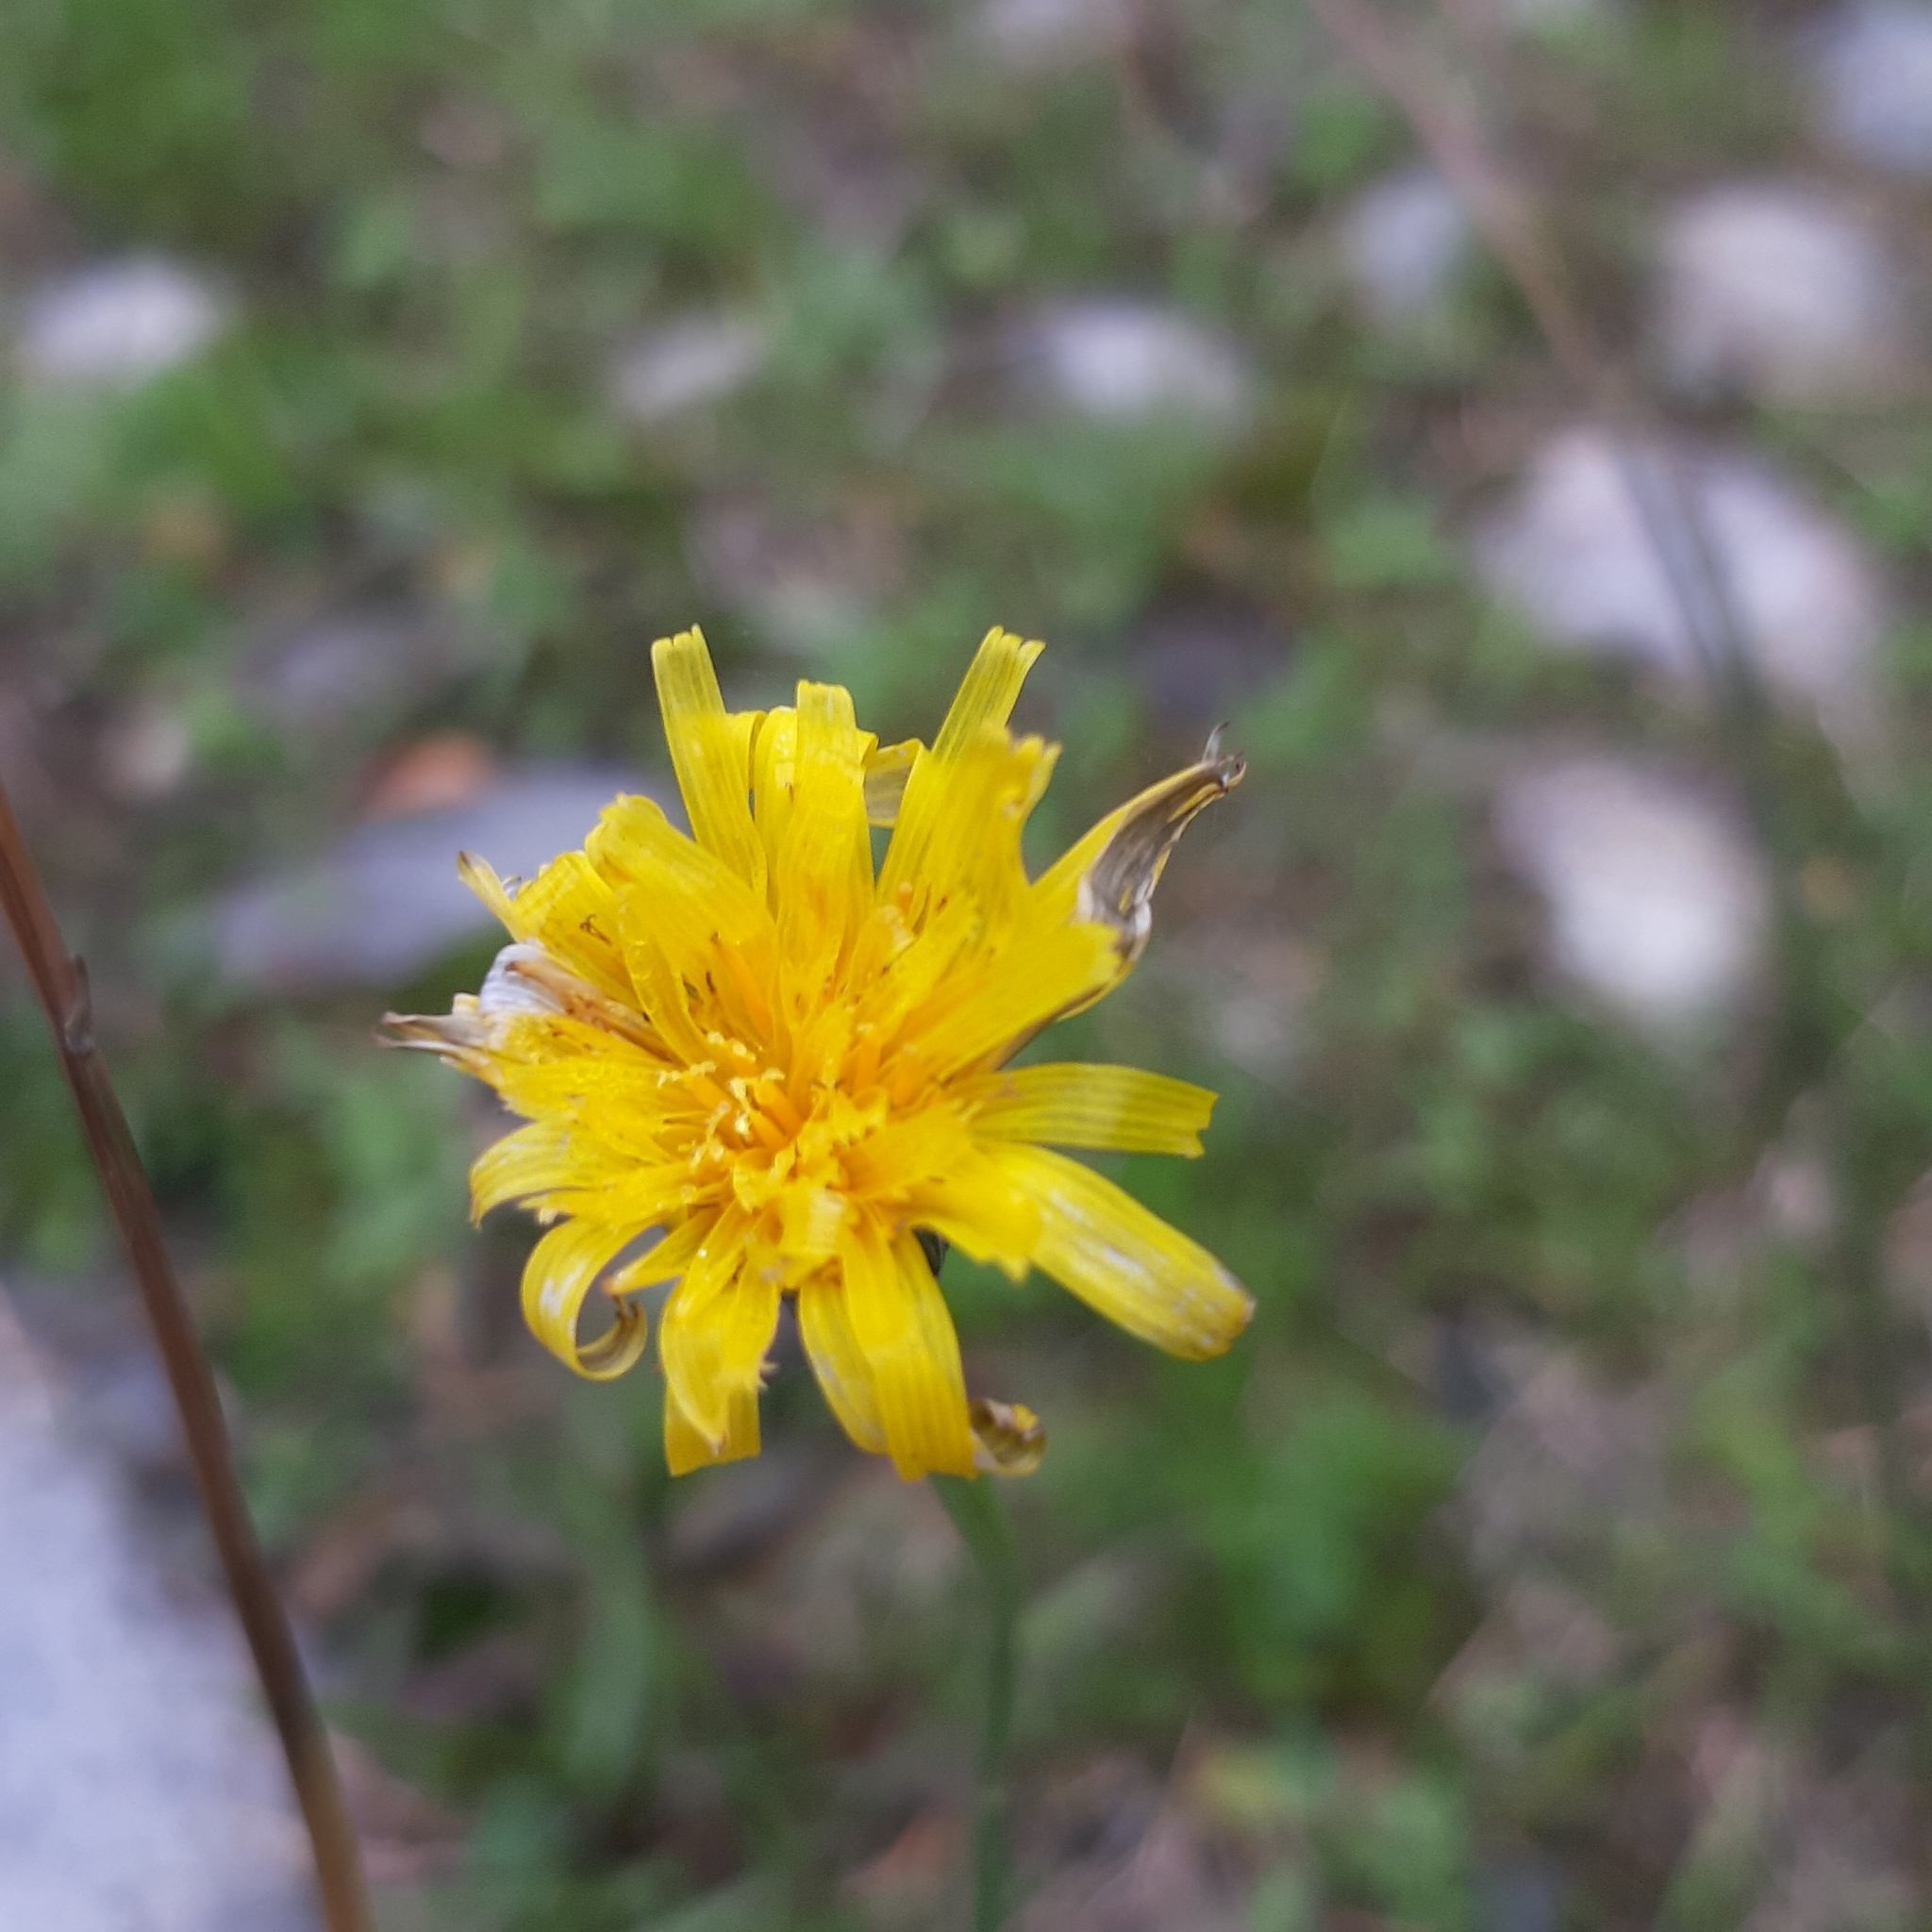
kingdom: Plantae
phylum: Tracheophyta
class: Magnoliopsida
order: Asterales
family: Asteraceae
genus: Hypochaeris
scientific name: Hypochaeris radicata
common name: Flatweed
